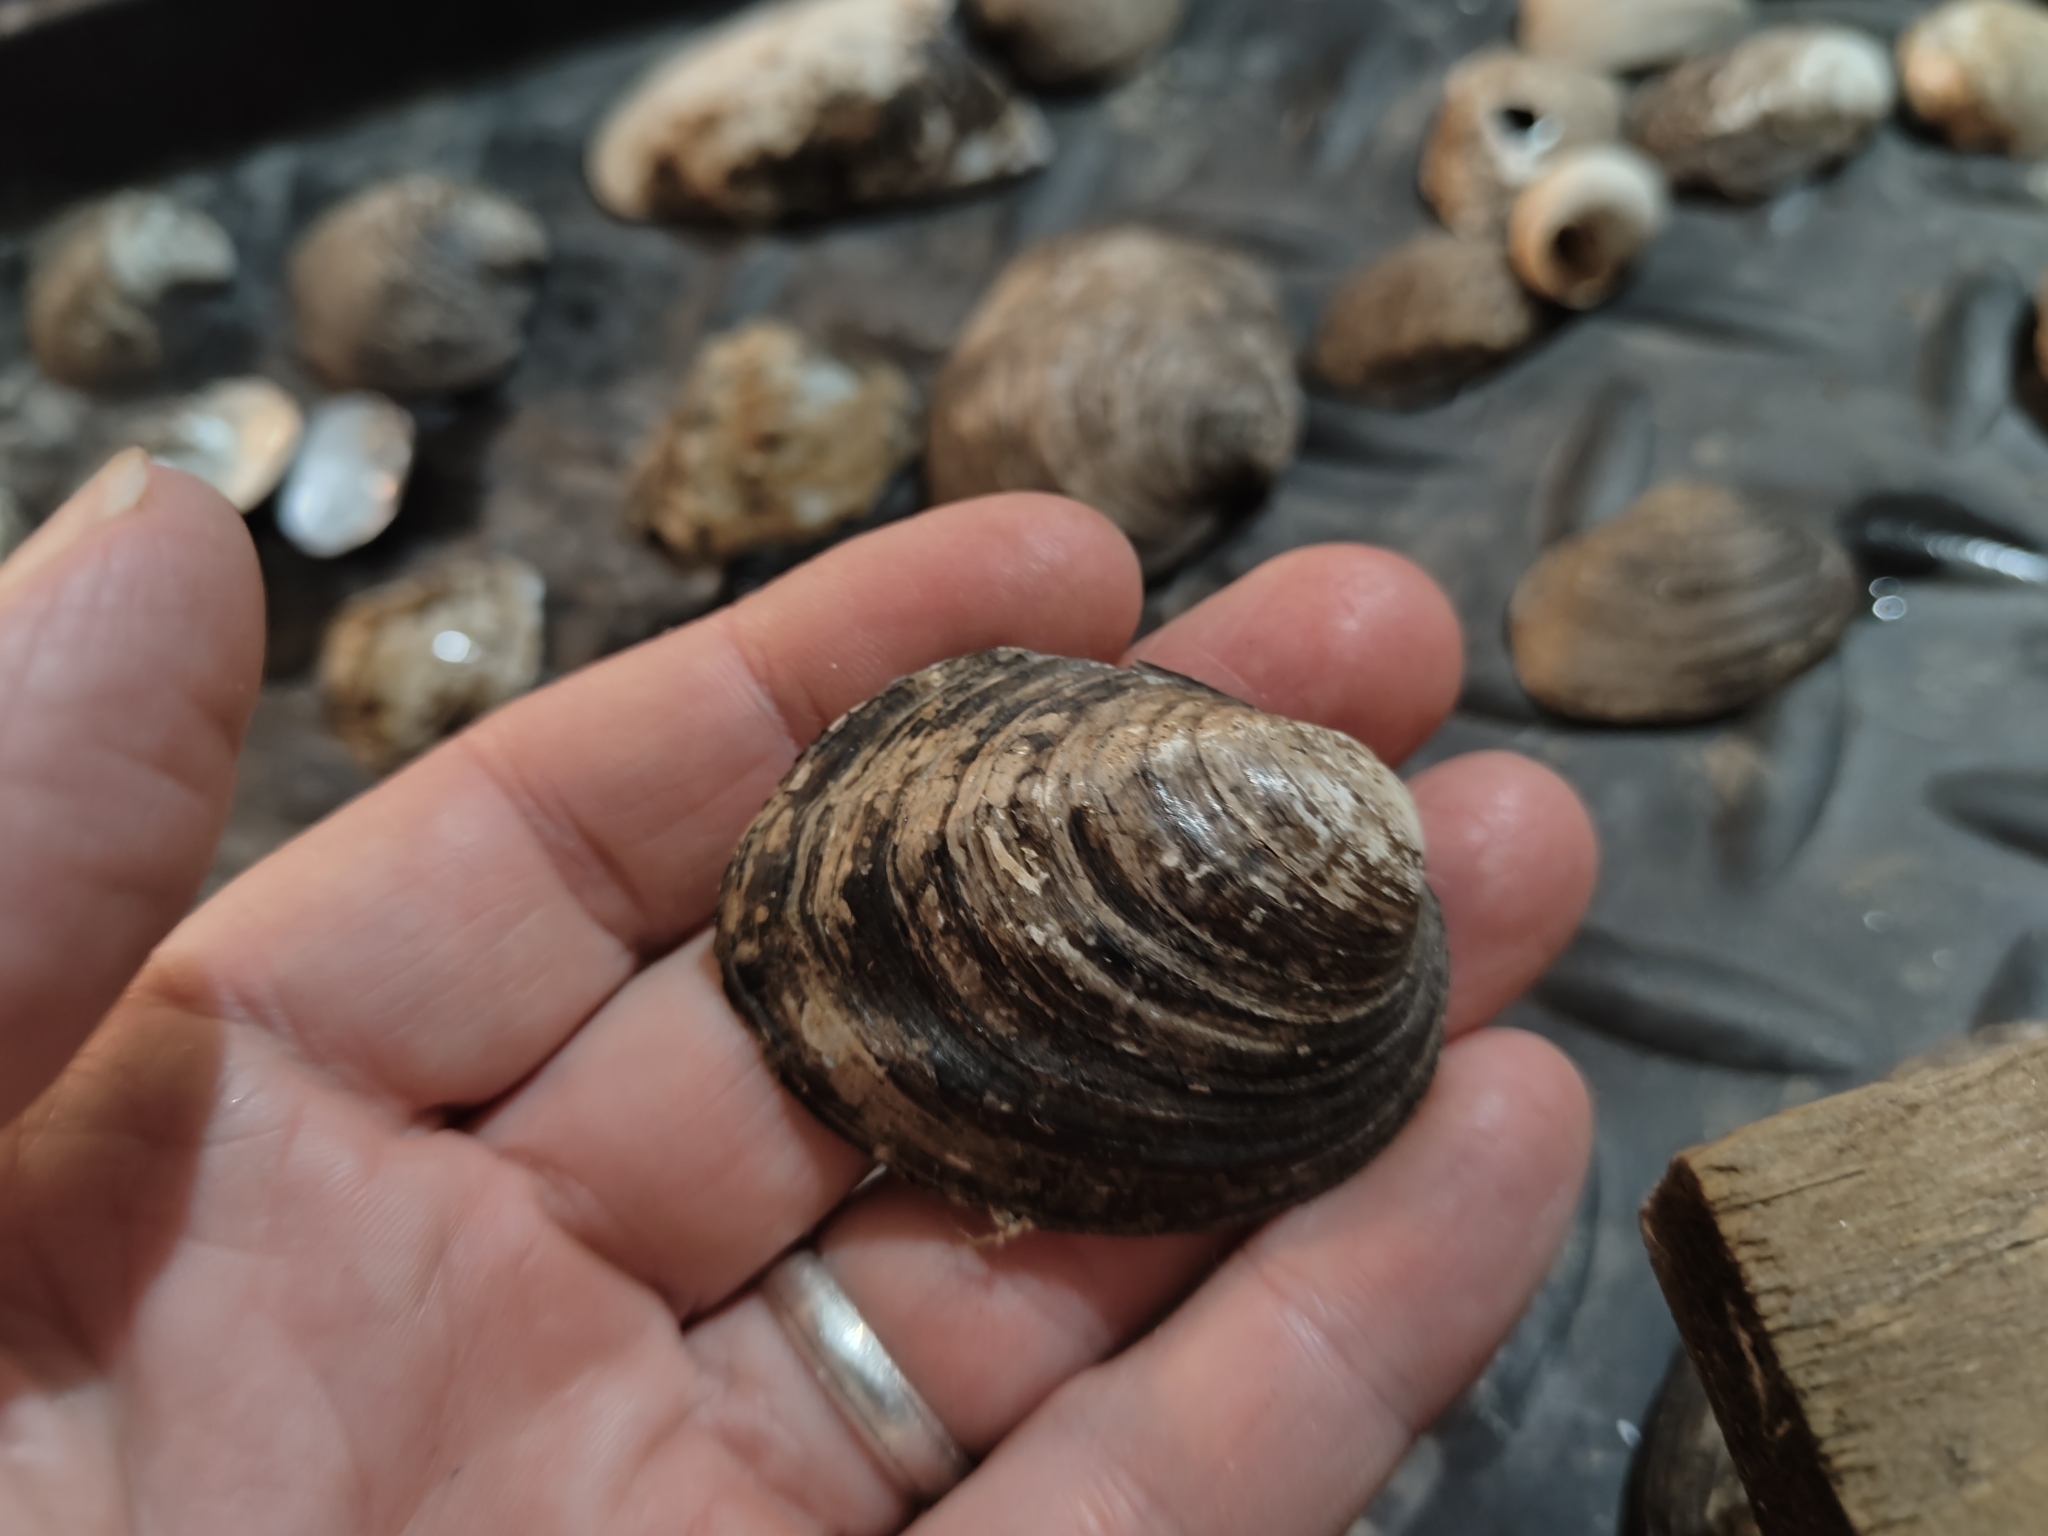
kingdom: Animalia
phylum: Mollusca
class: Bivalvia
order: Unionida
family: Unionidae
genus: Amblema
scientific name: Amblema plicata
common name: Threeridge
